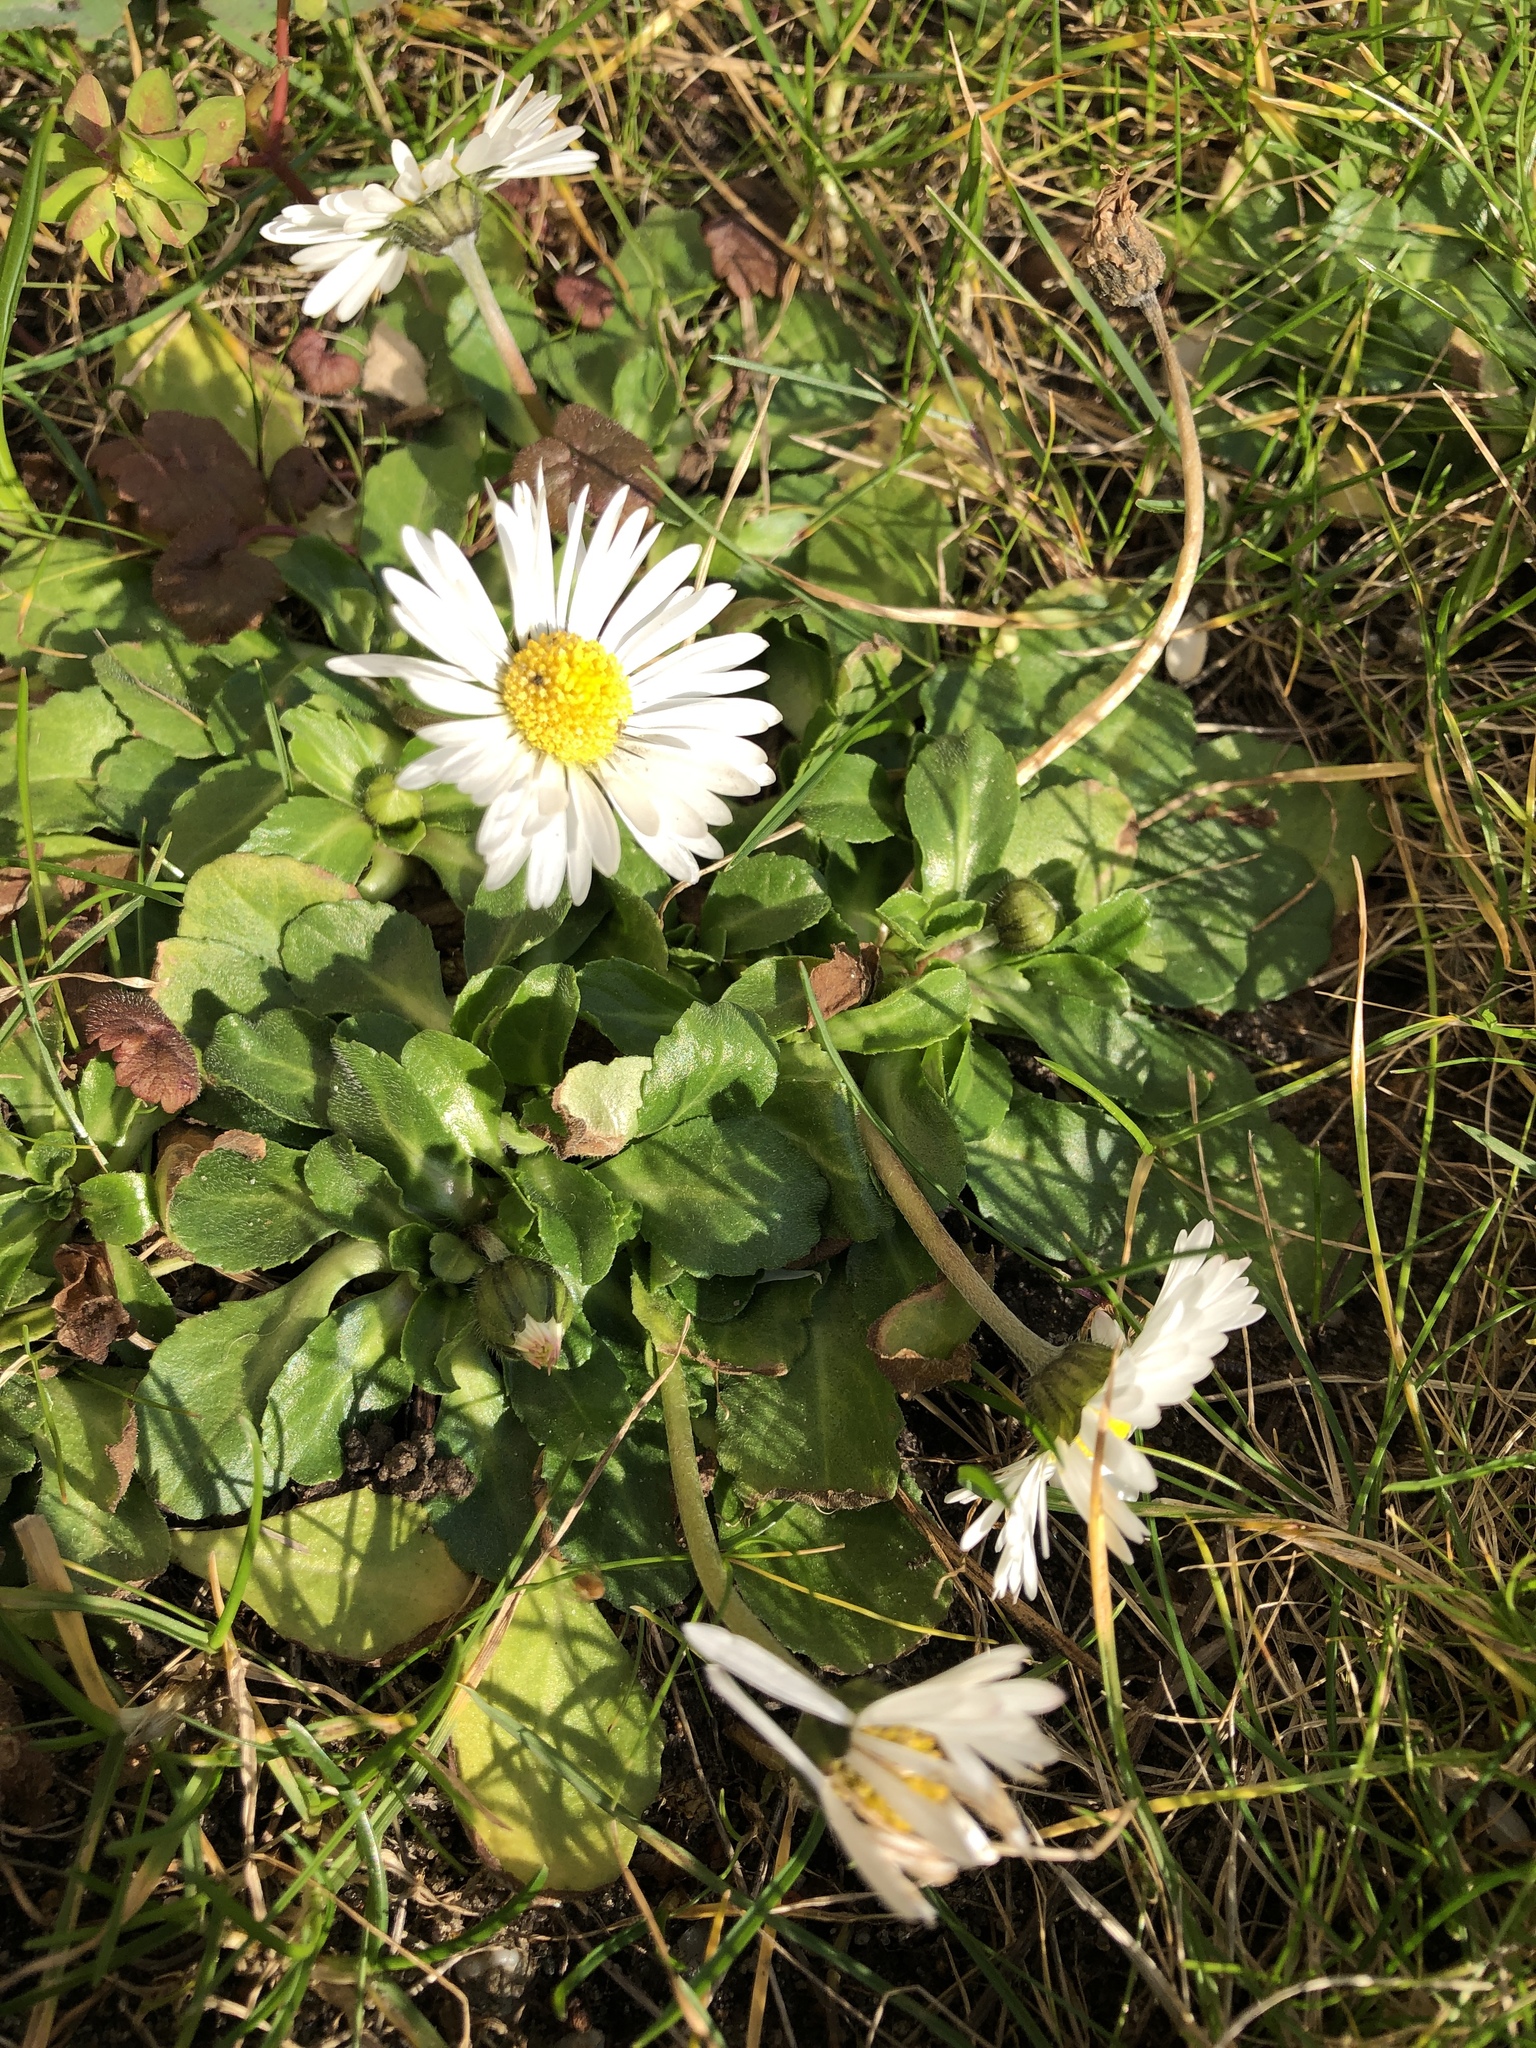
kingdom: Plantae
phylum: Tracheophyta
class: Magnoliopsida
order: Asterales
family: Asteraceae
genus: Bellis
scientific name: Bellis perennis
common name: Lawndaisy
